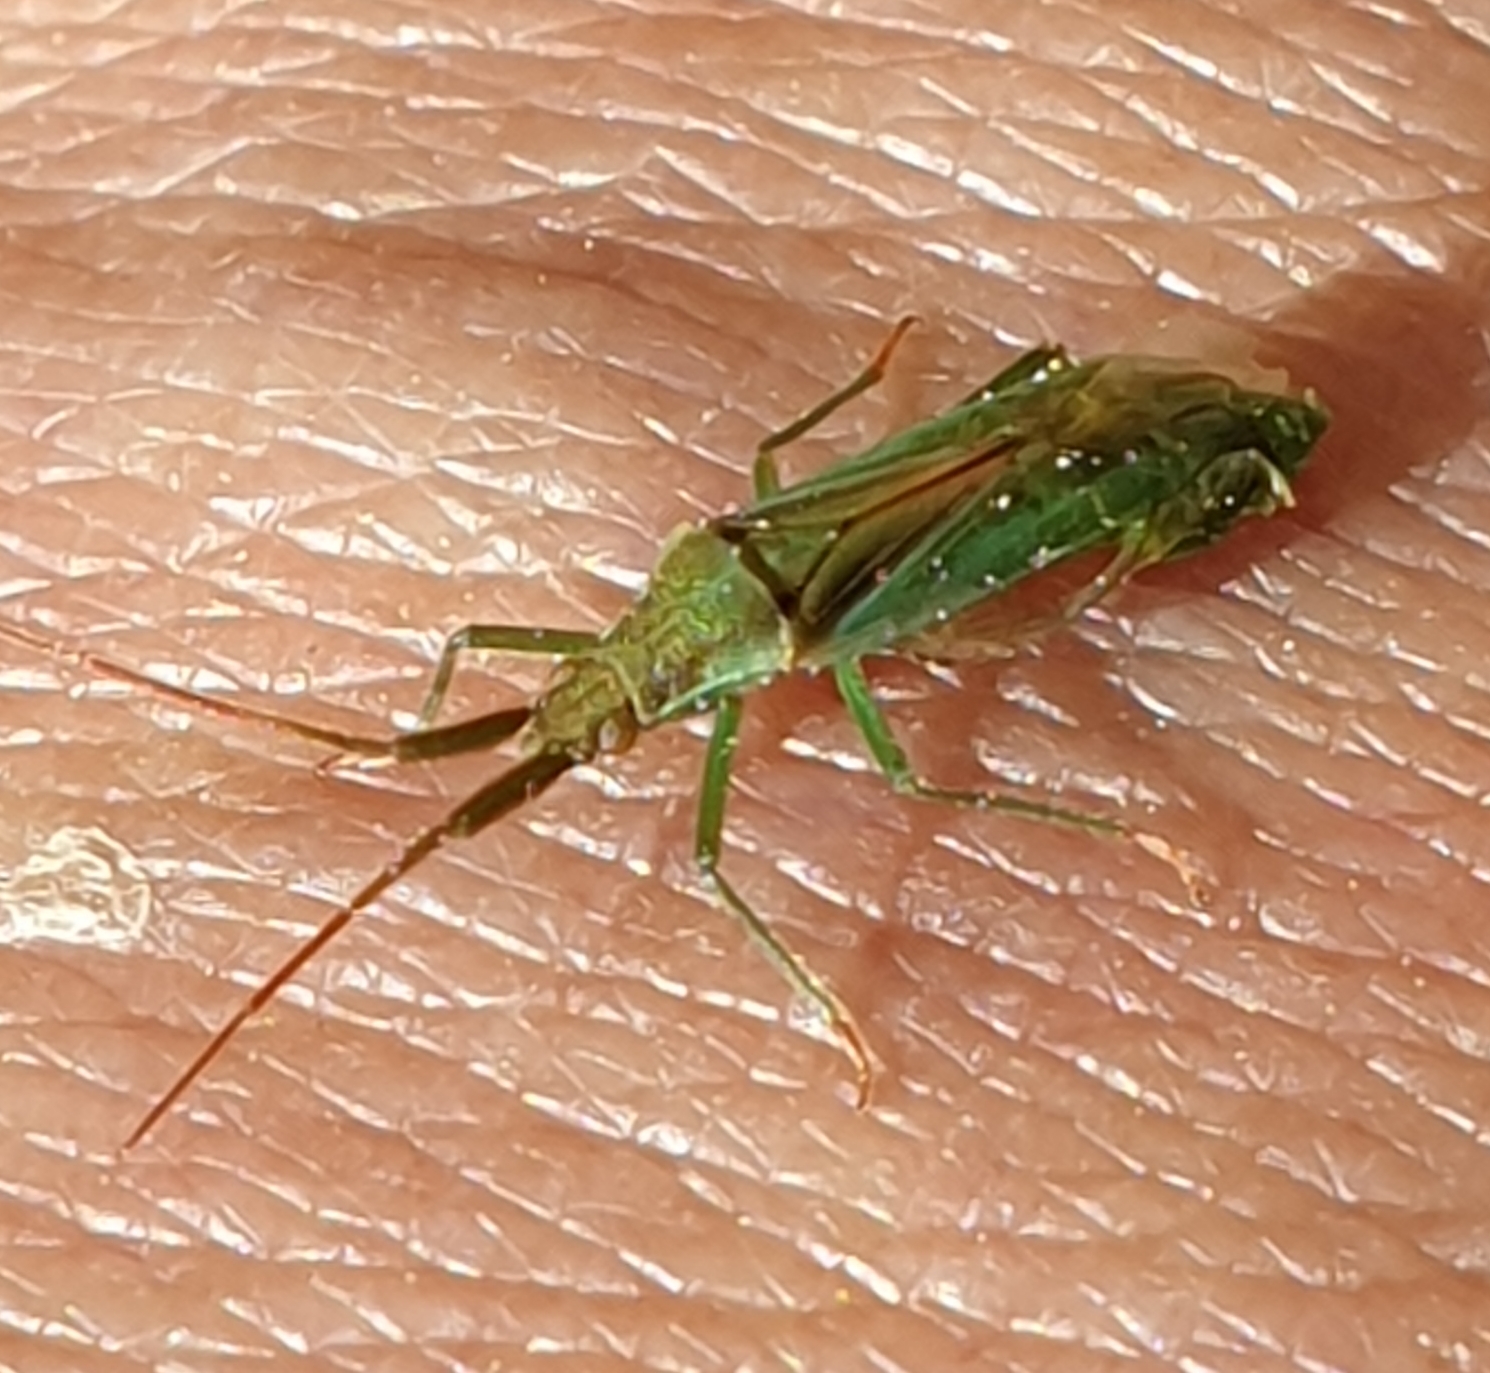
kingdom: Animalia
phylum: Arthropoda
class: Insecta
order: Hemiptera
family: Miridae
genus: Stenodema
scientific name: Stenodema laevigata
